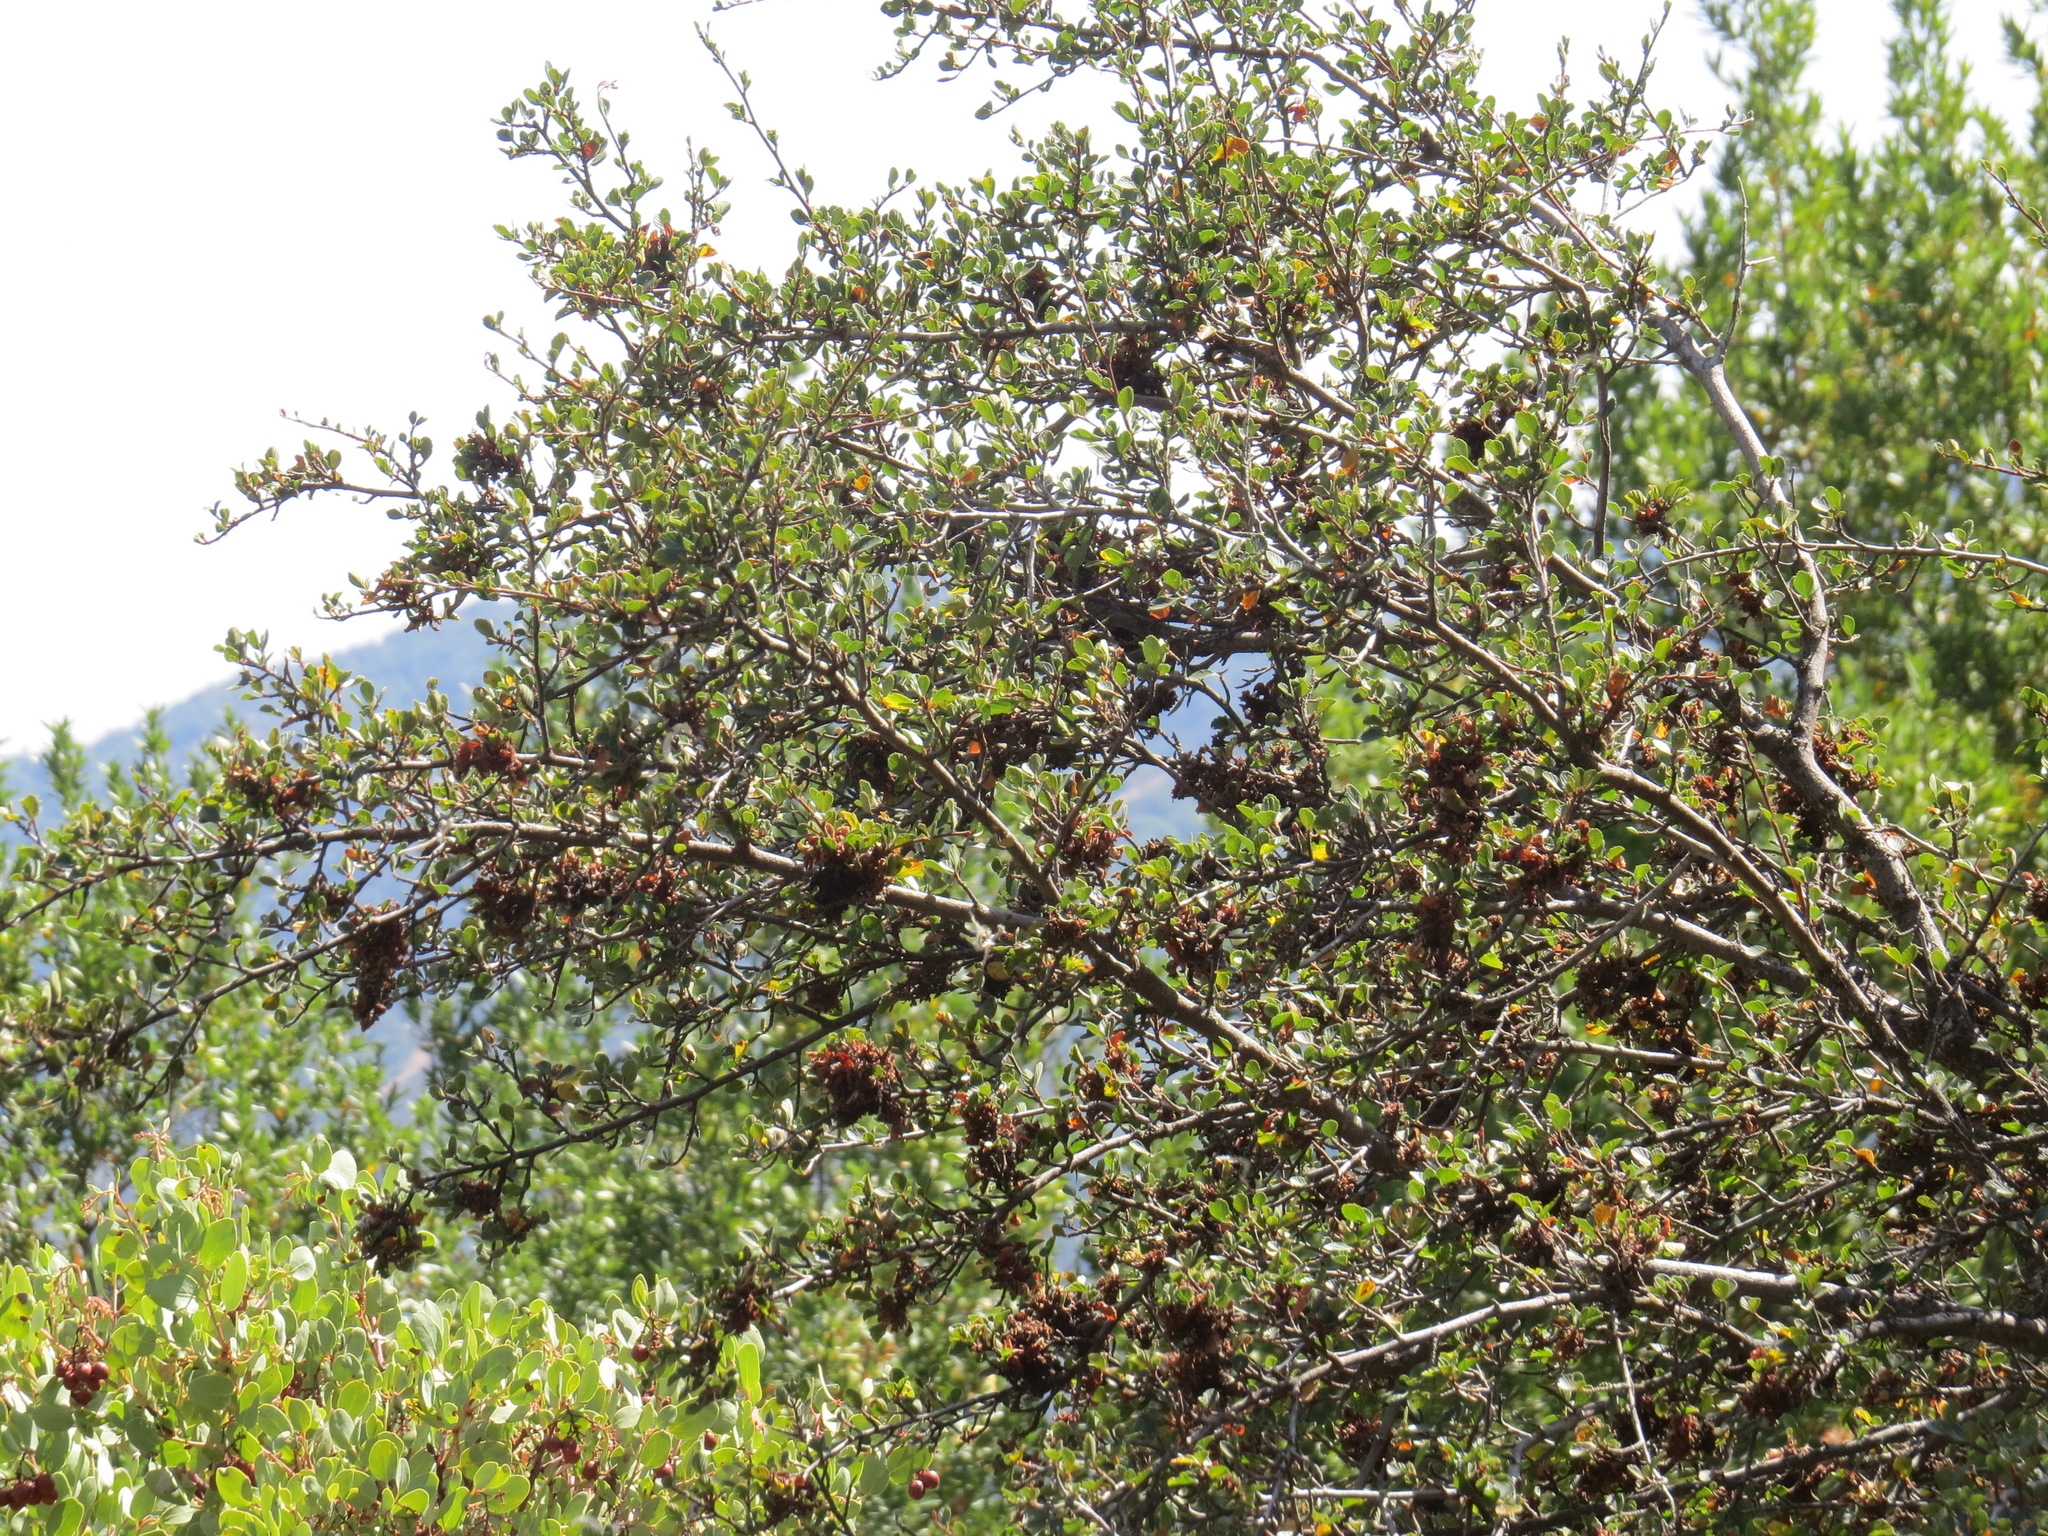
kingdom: Plantae
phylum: Tracheophyta
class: Magnoliopsida
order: Rosales
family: Rosaceae
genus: Cercocarpus
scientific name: Cercocarpus betuloides
